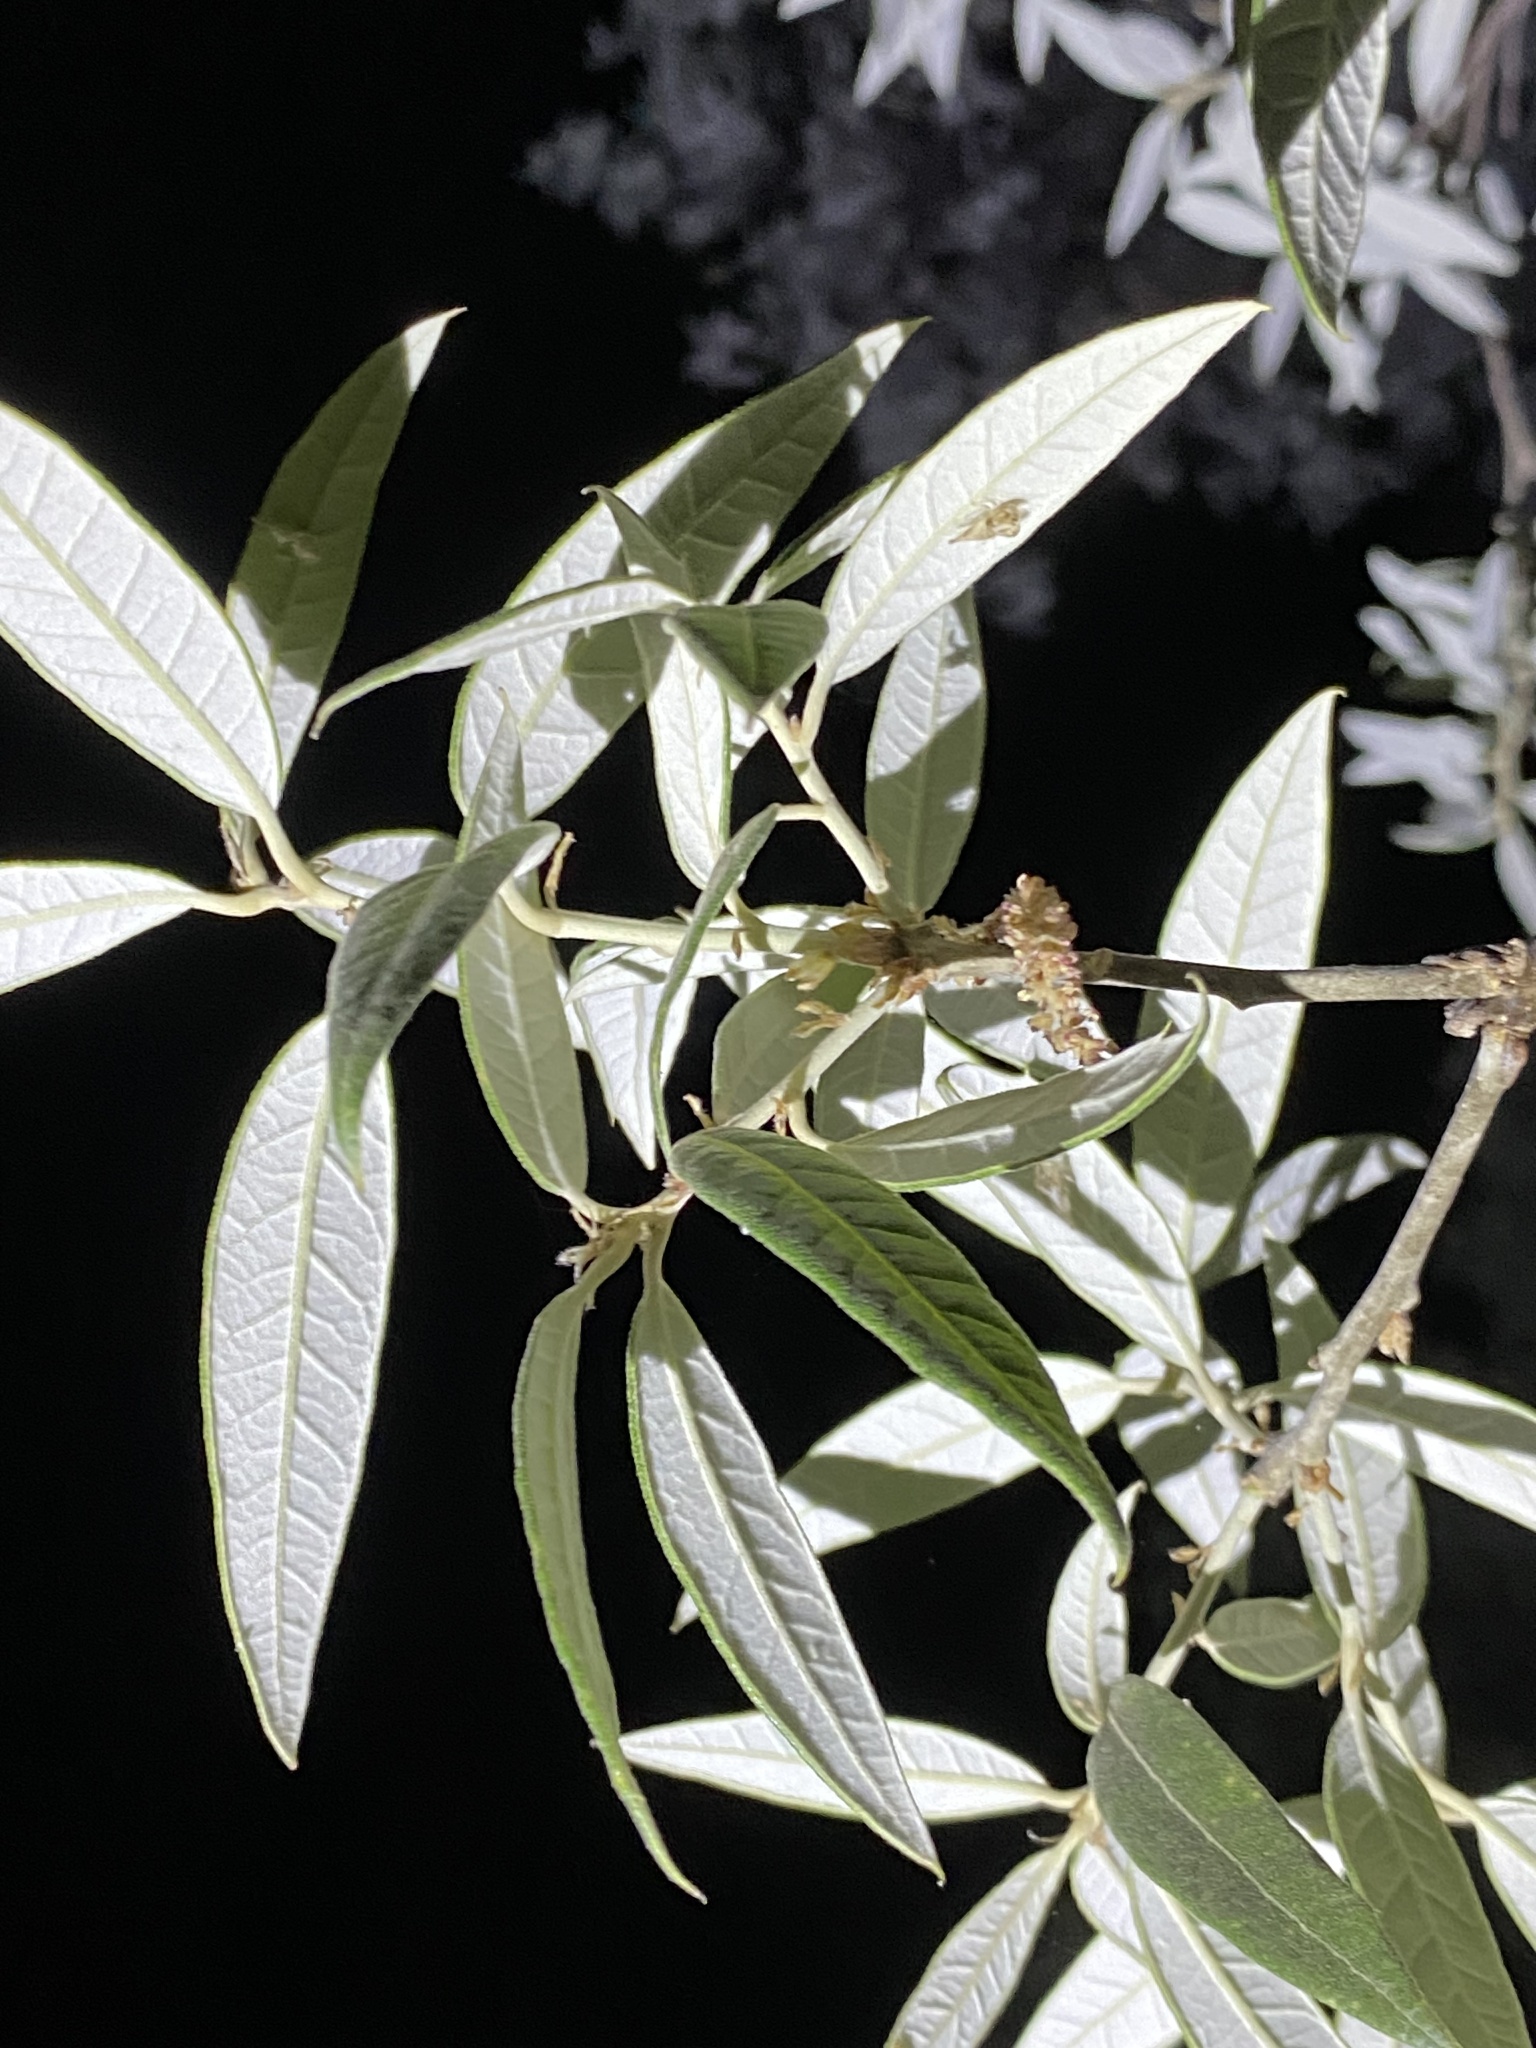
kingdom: Plantae
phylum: Tracheophyta
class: Magnoliopsida
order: Fagales
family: Fagaceae
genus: Quercus
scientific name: Quercus hypoleucoides
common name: Silverleaf oak
